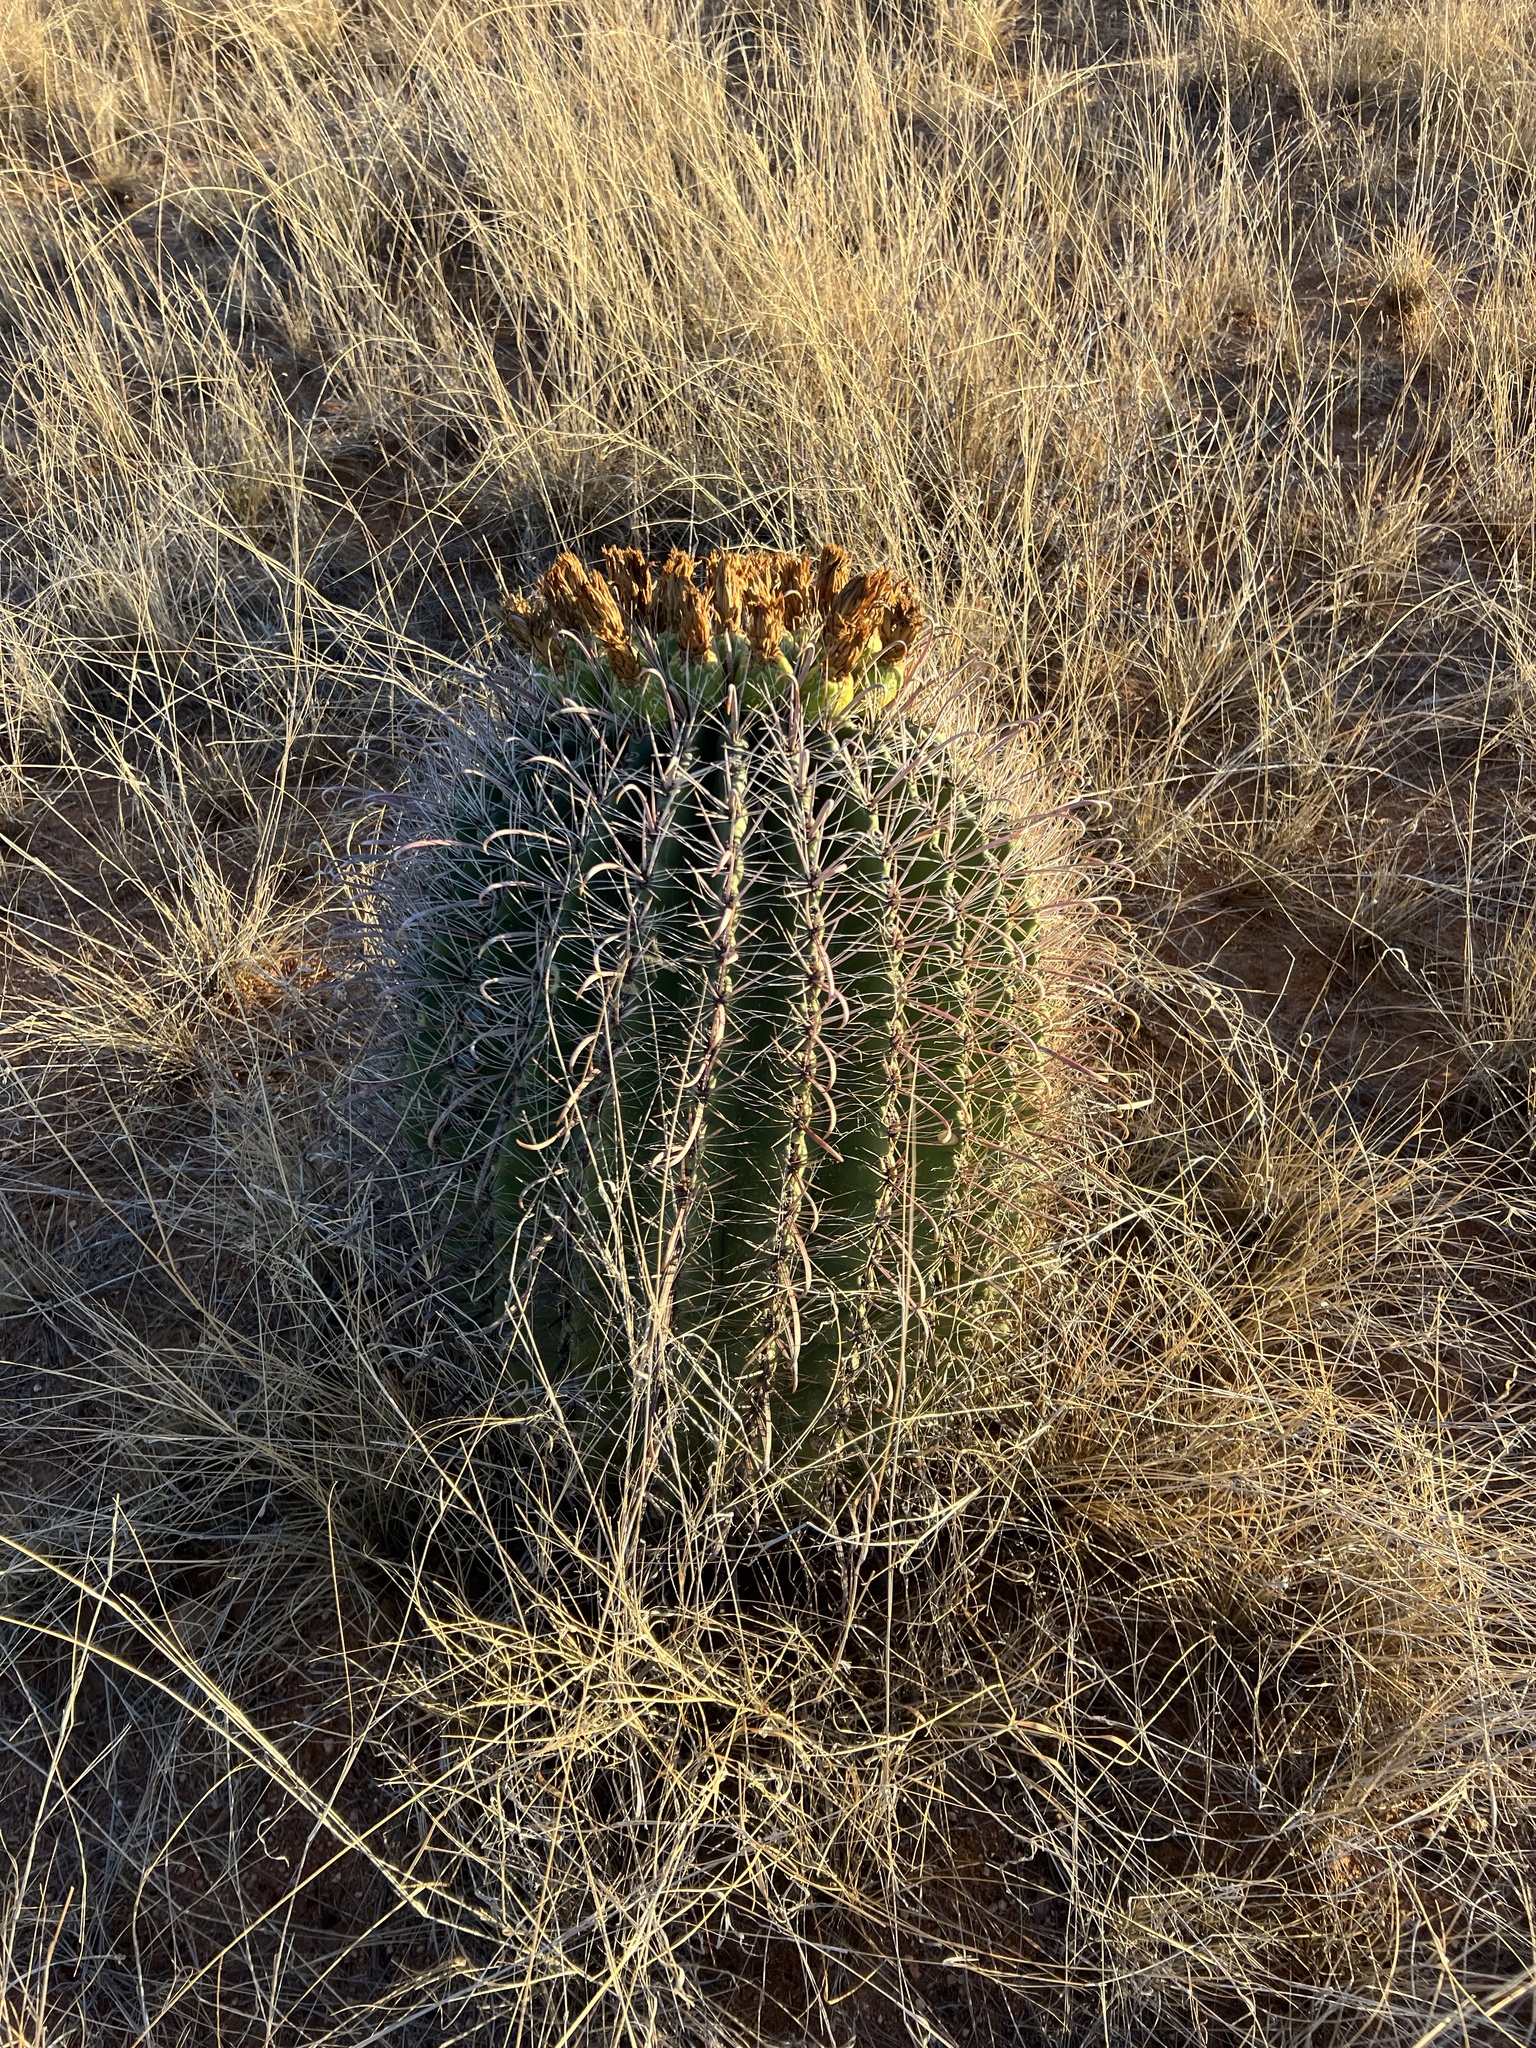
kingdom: Plantae
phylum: Tracheophyta
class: Magnoliopsida
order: Caryophyllales
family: Cactaceae
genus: Ferocactus
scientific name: Ferocactus wislizeni
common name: Candy barrel cactus
